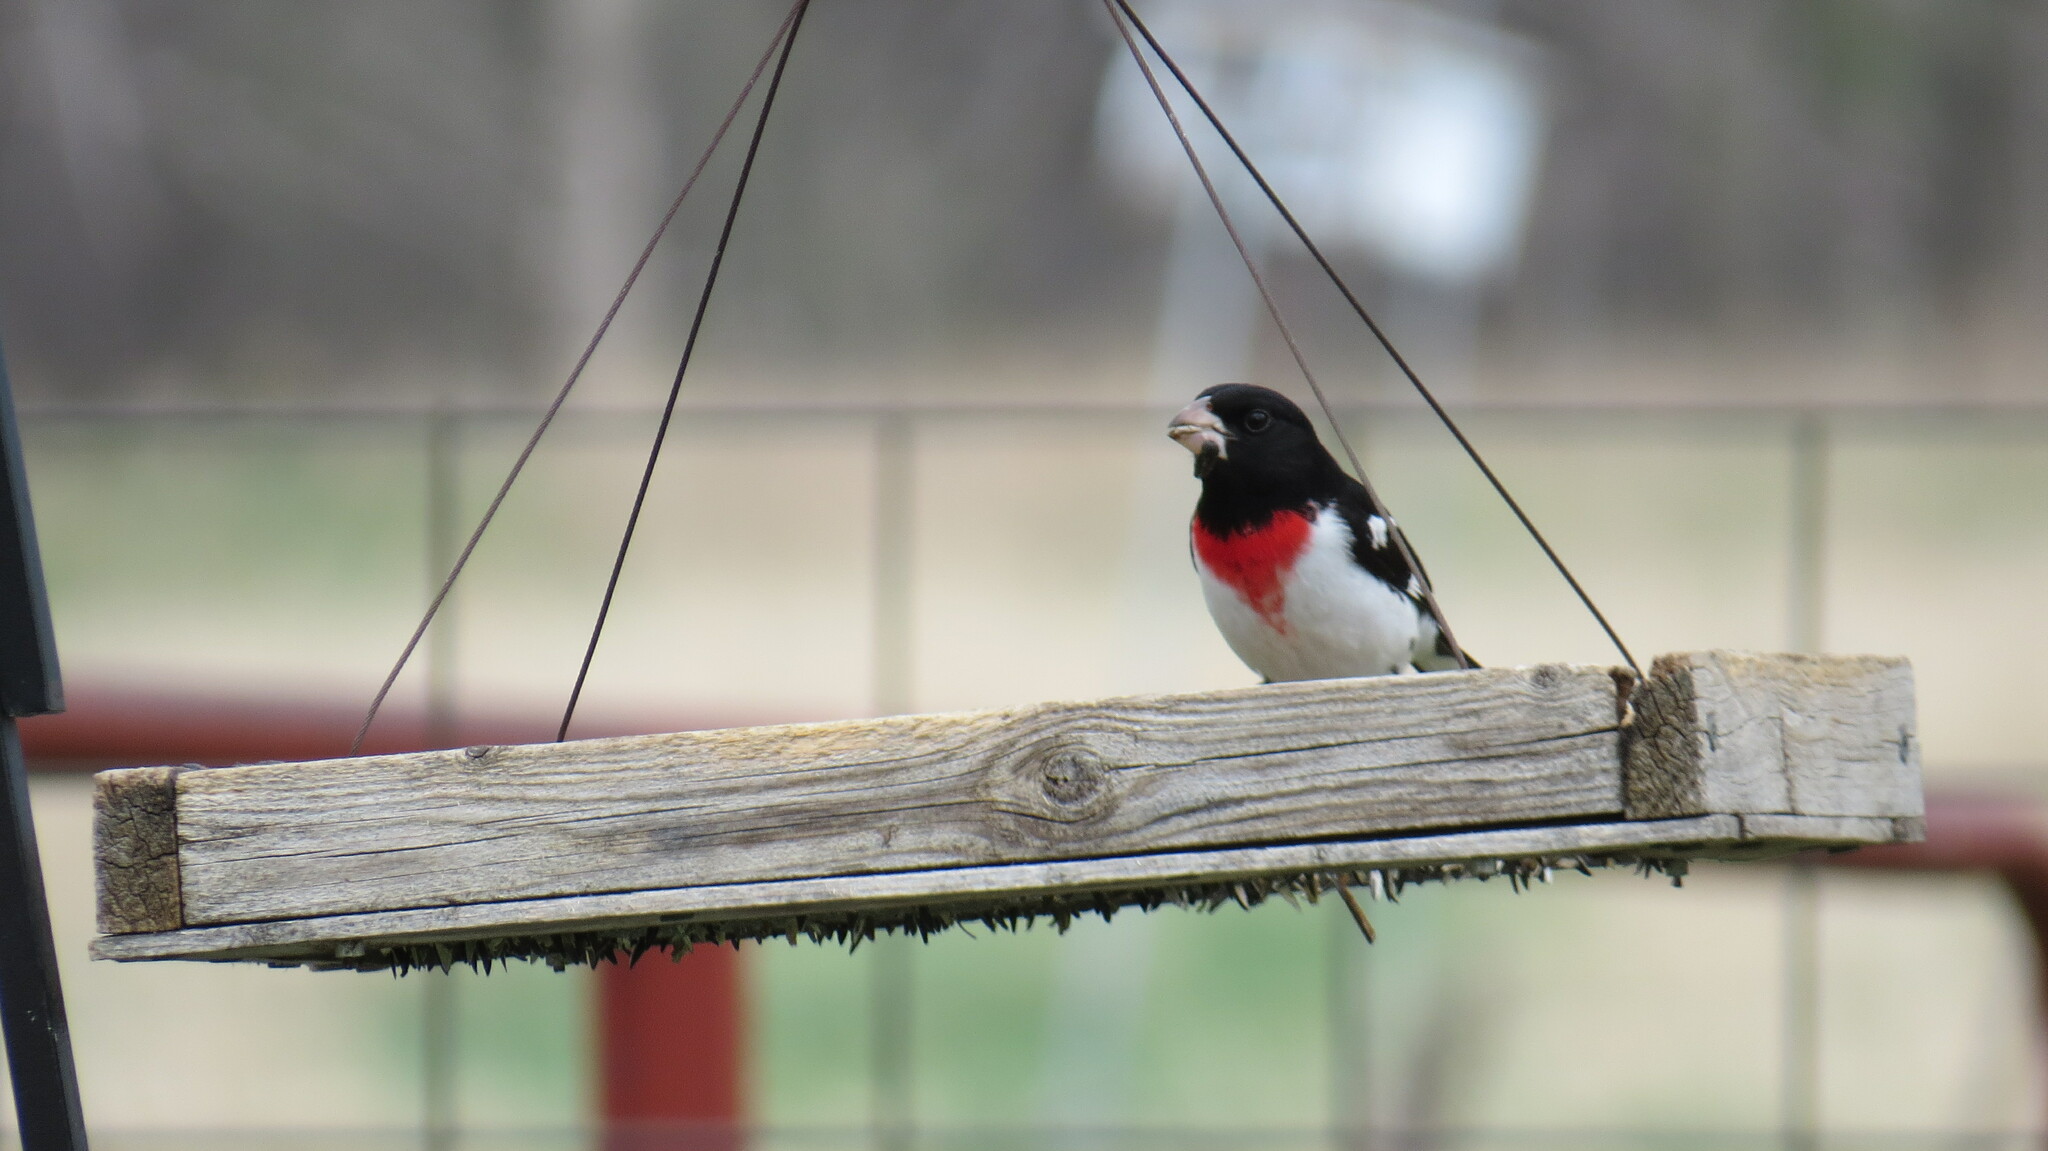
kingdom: Animalia
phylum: Chordata
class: Aves
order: Passeriformes
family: Cardinalidae
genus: Pheucticus
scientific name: Pheucticus ludovicianus
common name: Rose-breasted grosbeak
